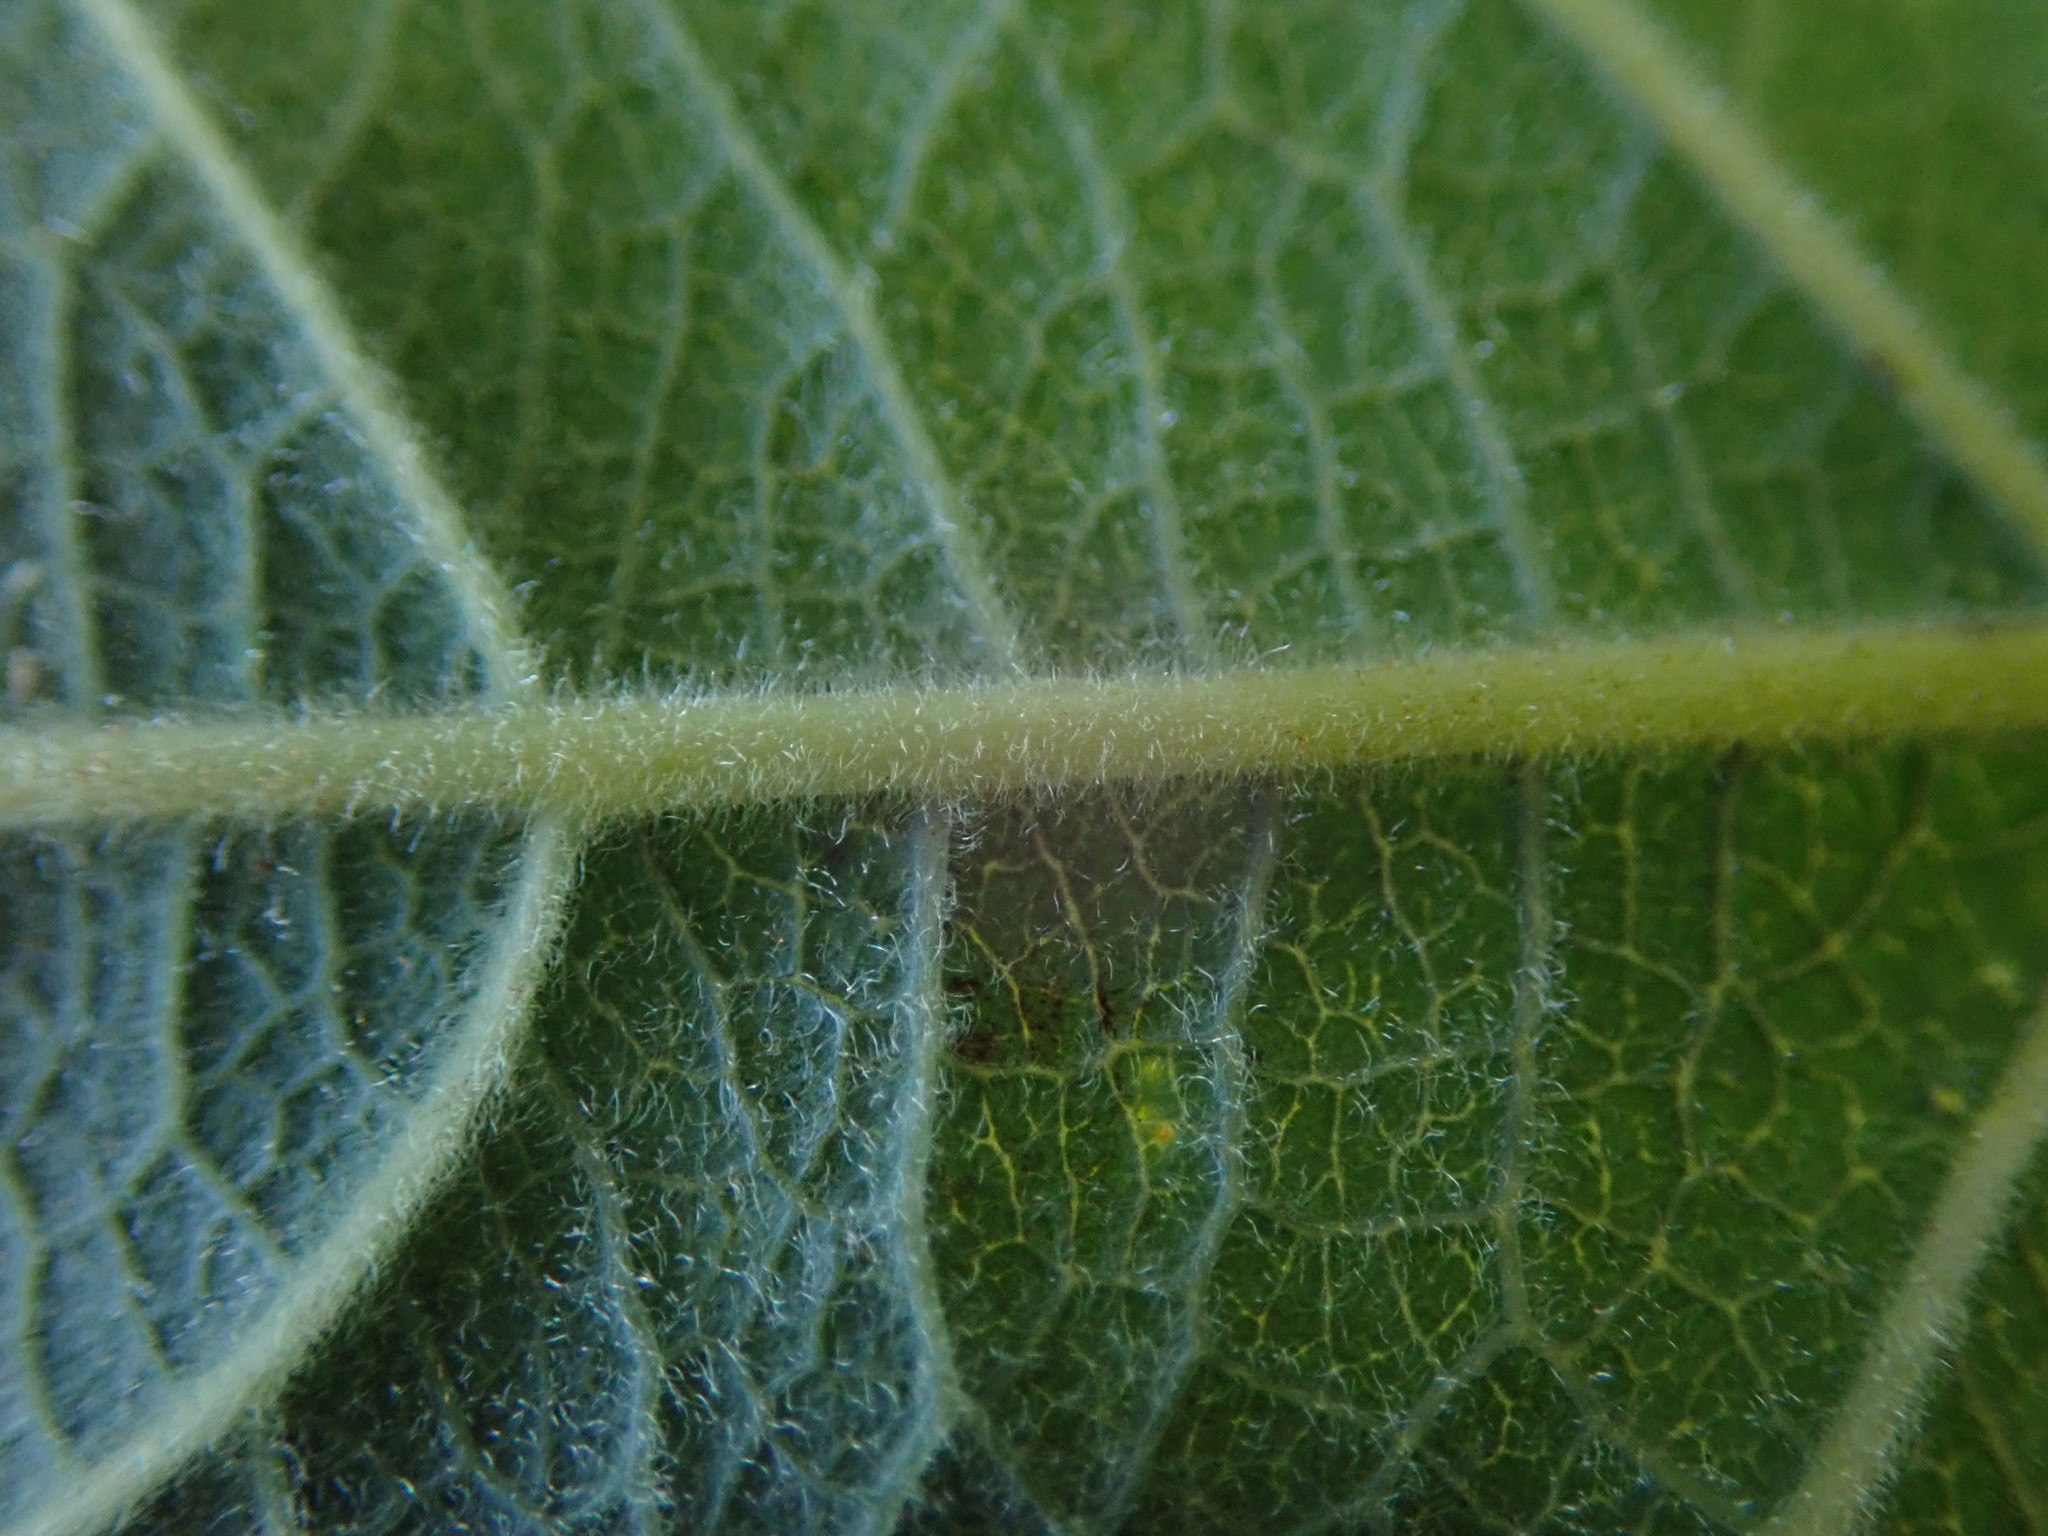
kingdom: Plantae
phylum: Tracheophyta
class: Magnoliopsida
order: Malpighiales
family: Salicaceae
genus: Salix
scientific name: Salix caprea
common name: Goat willow
